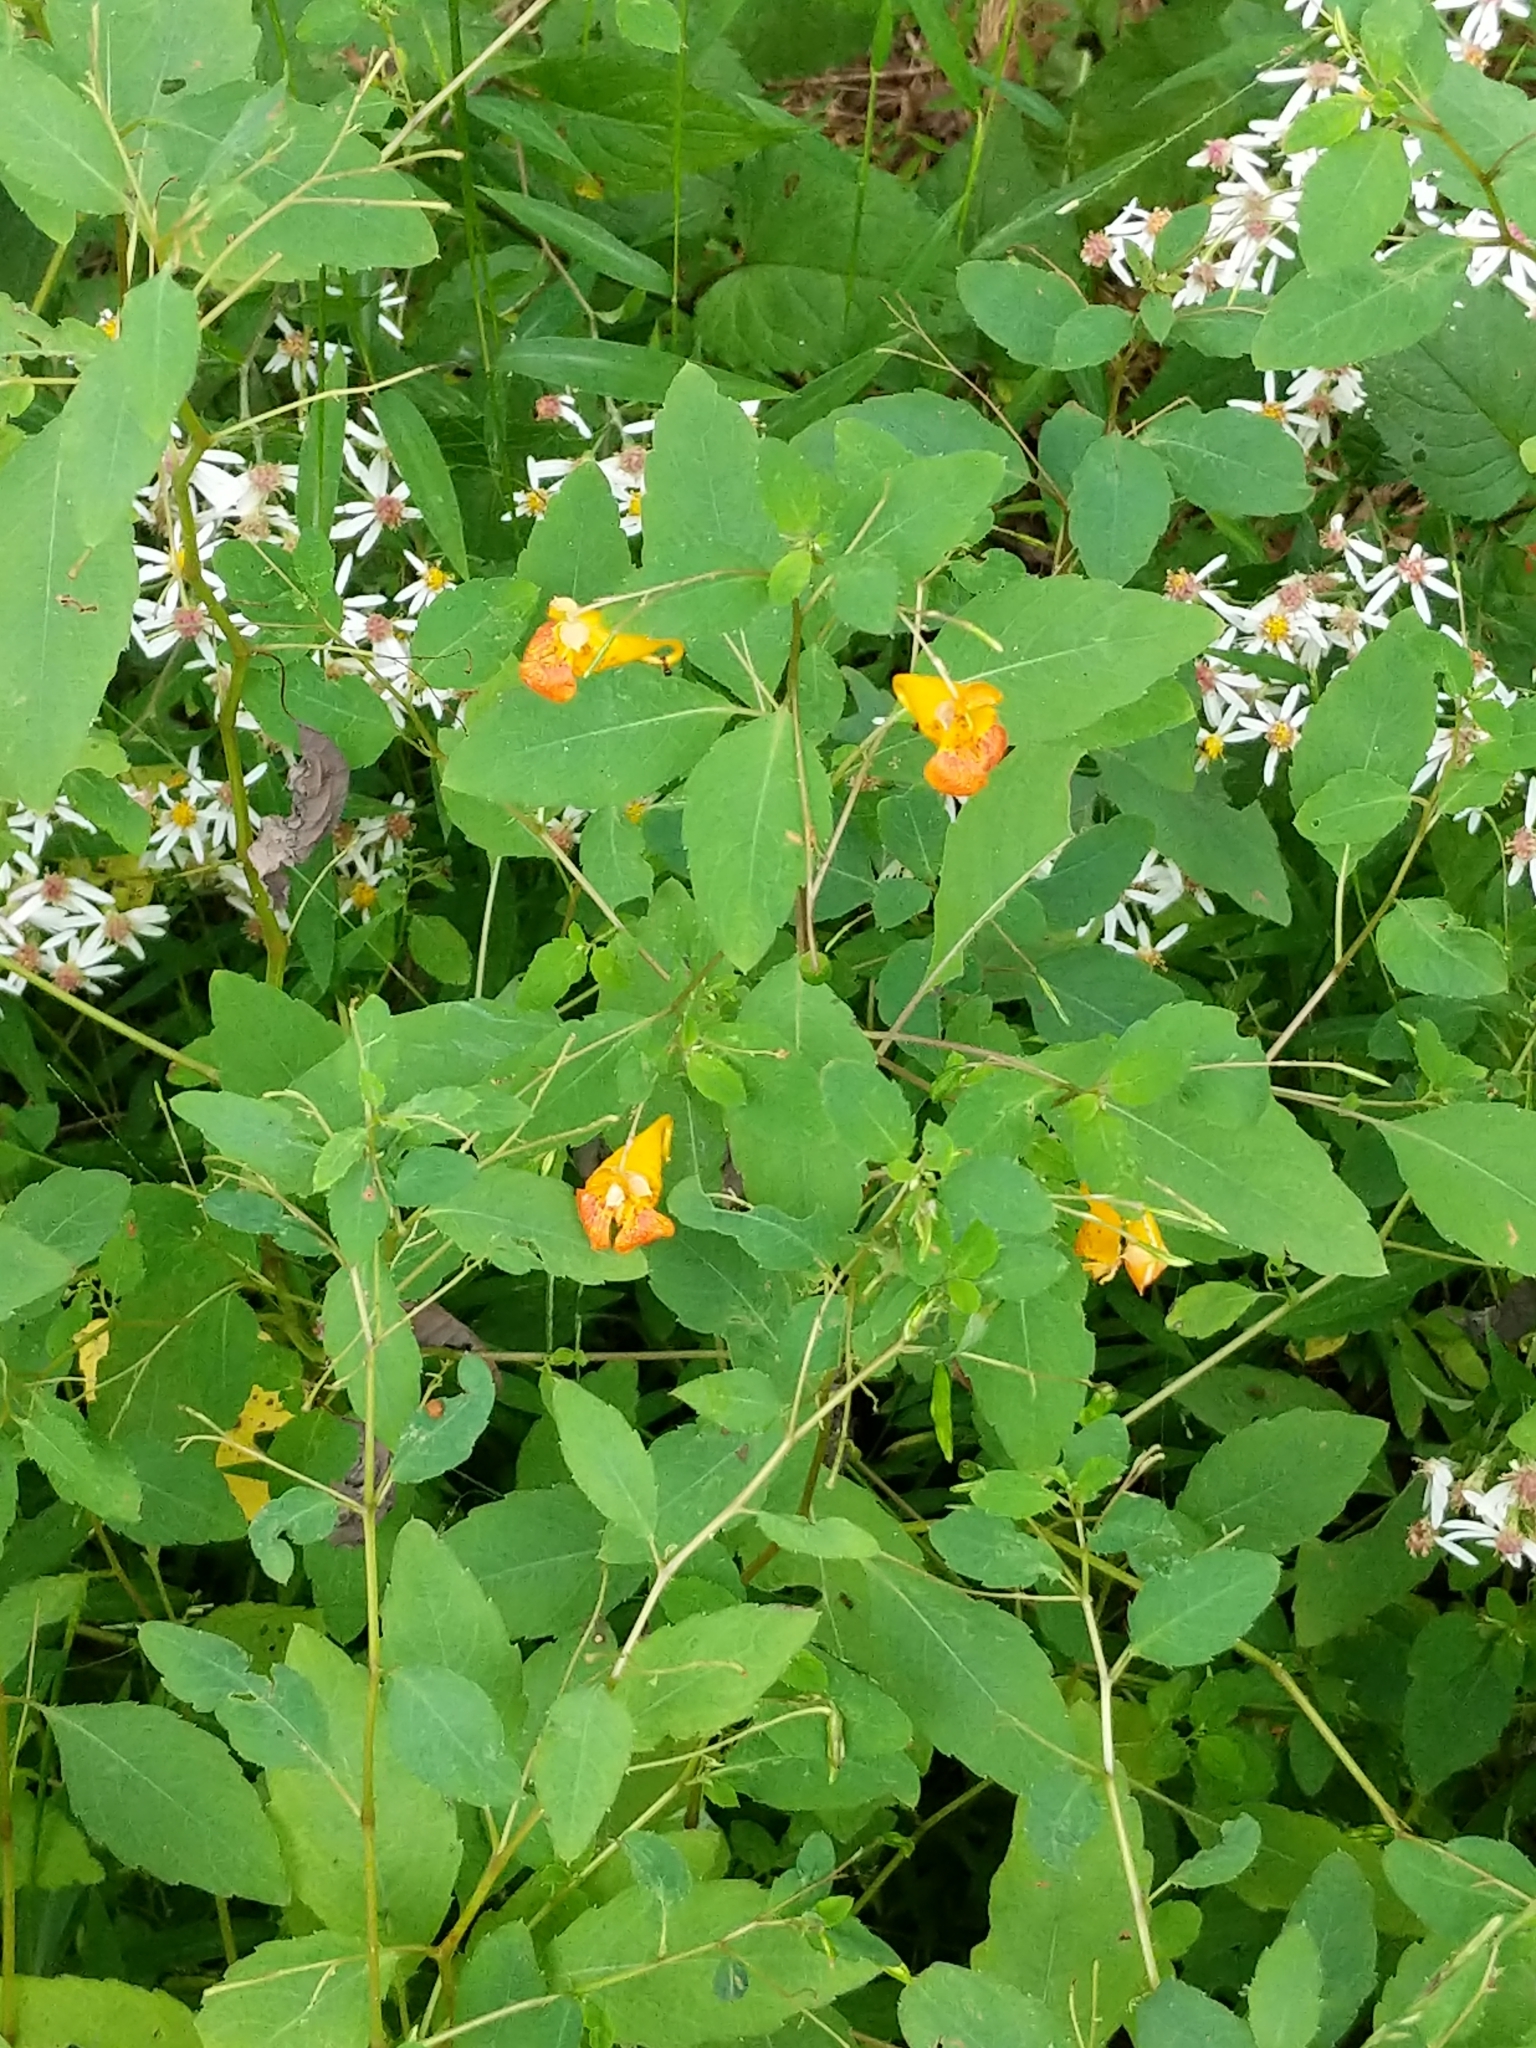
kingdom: Plantae
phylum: Tracheophyta
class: Magnoliopsida
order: Ericales
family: Balsaminaceae
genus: Impatiens
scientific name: Impatiens capensis
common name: Orange balsam
